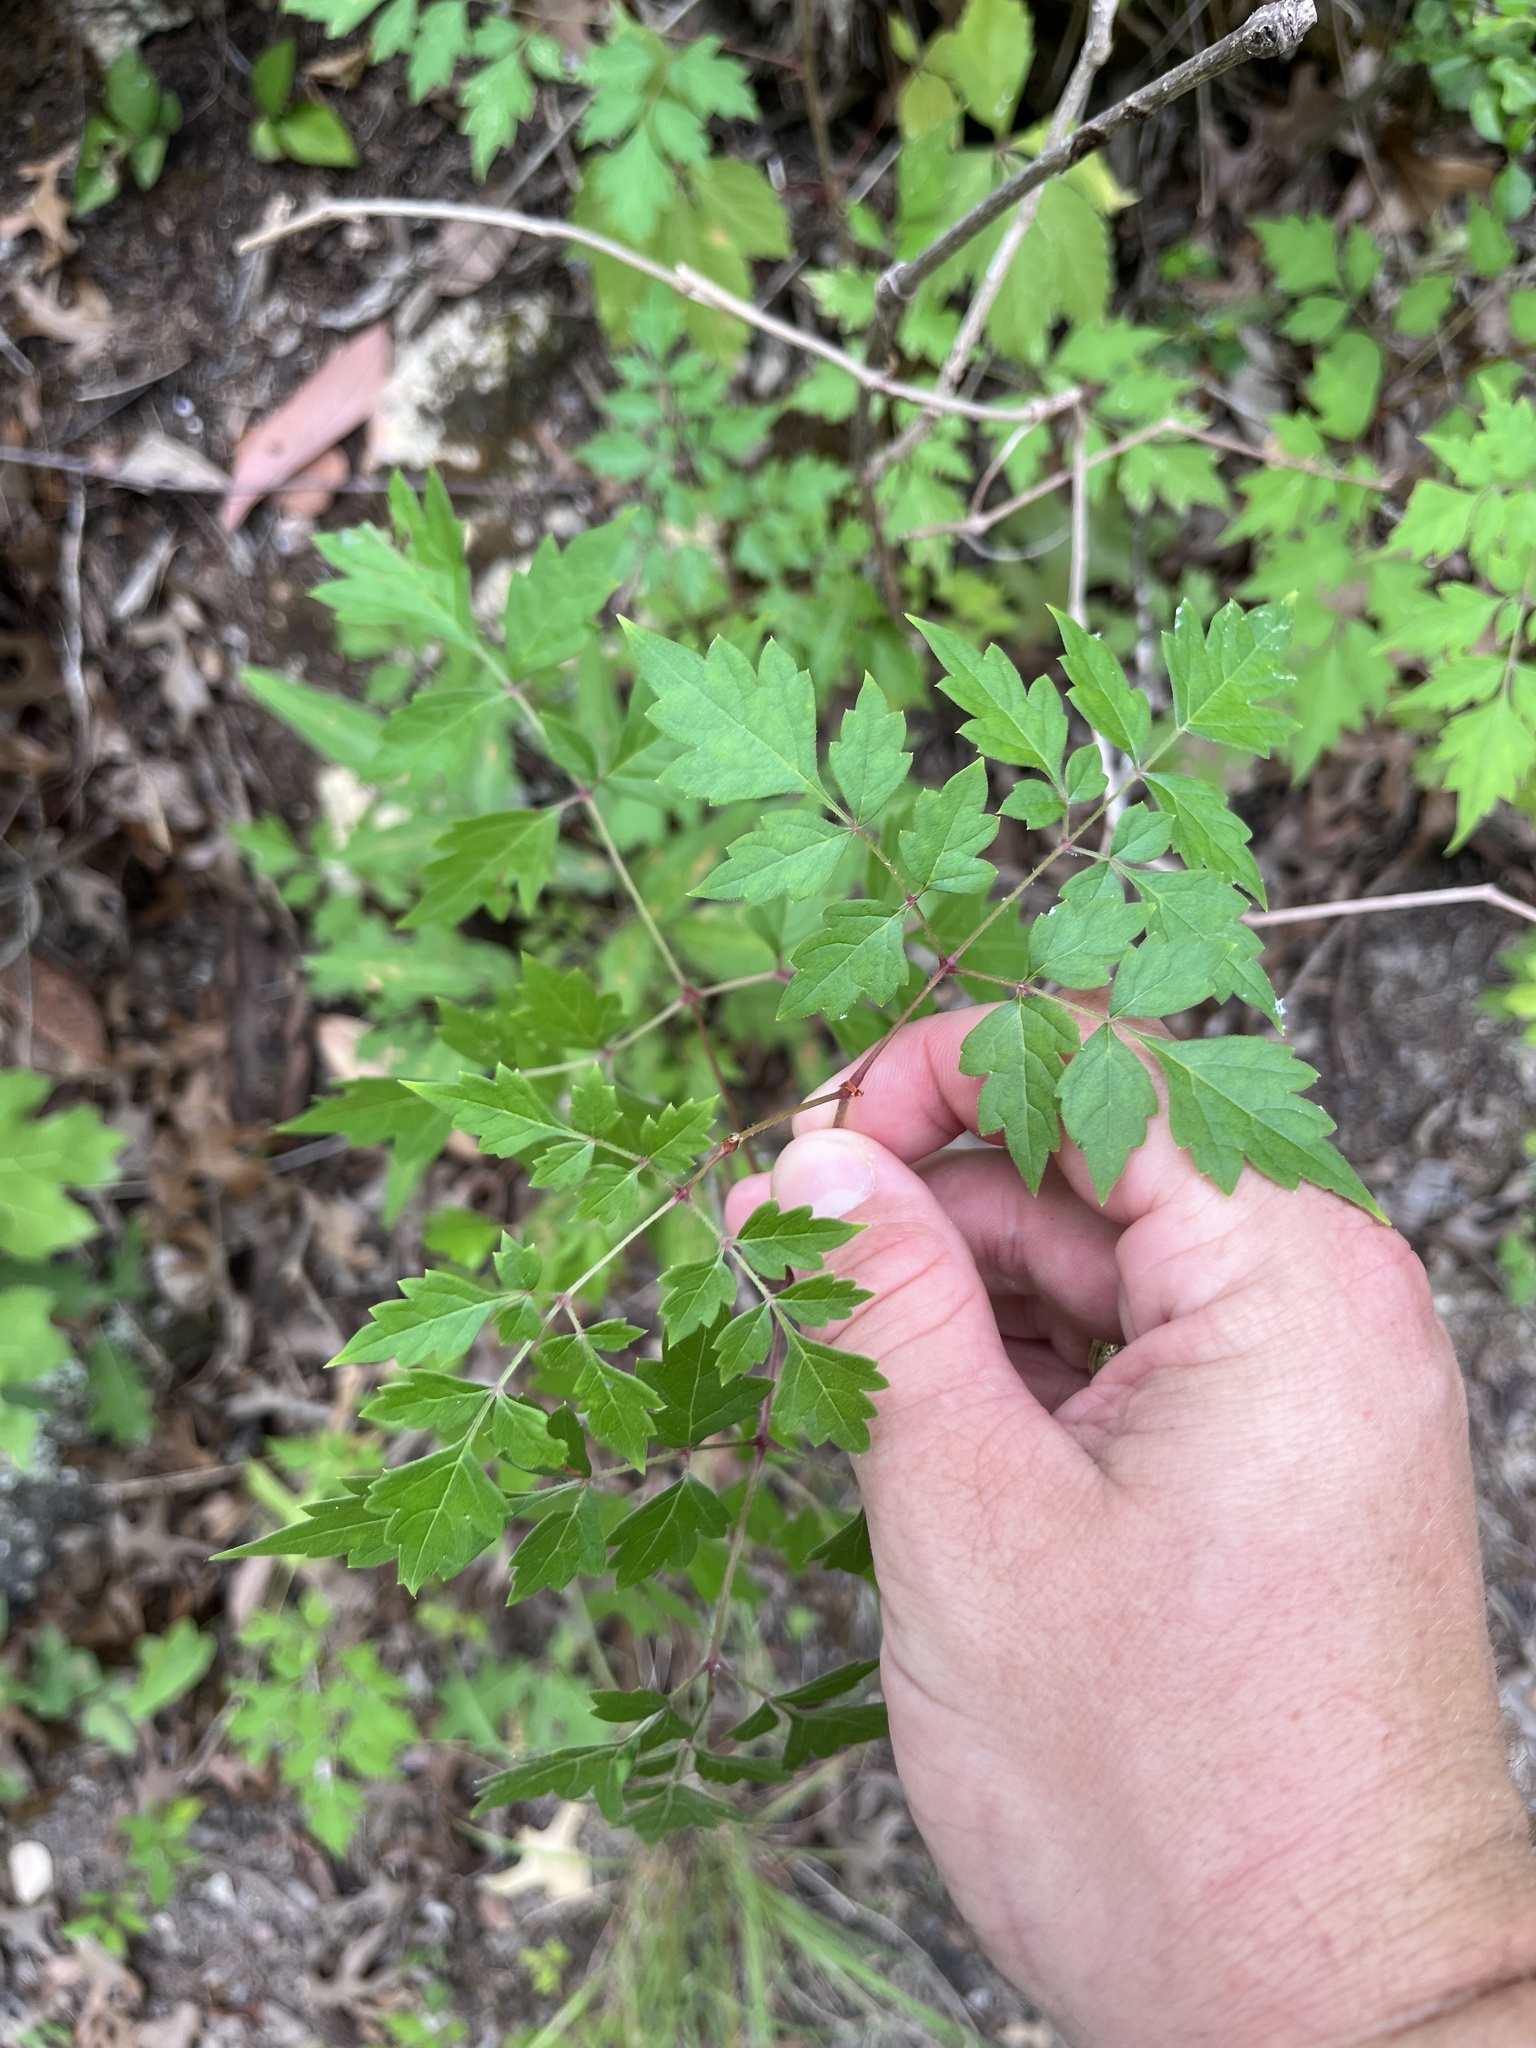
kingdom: Plantae
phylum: Tracheophyta
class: Magnoliopsida
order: Vitales
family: Vitaceae
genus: Nekemias
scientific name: Nekemias arborea
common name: Peppervine
